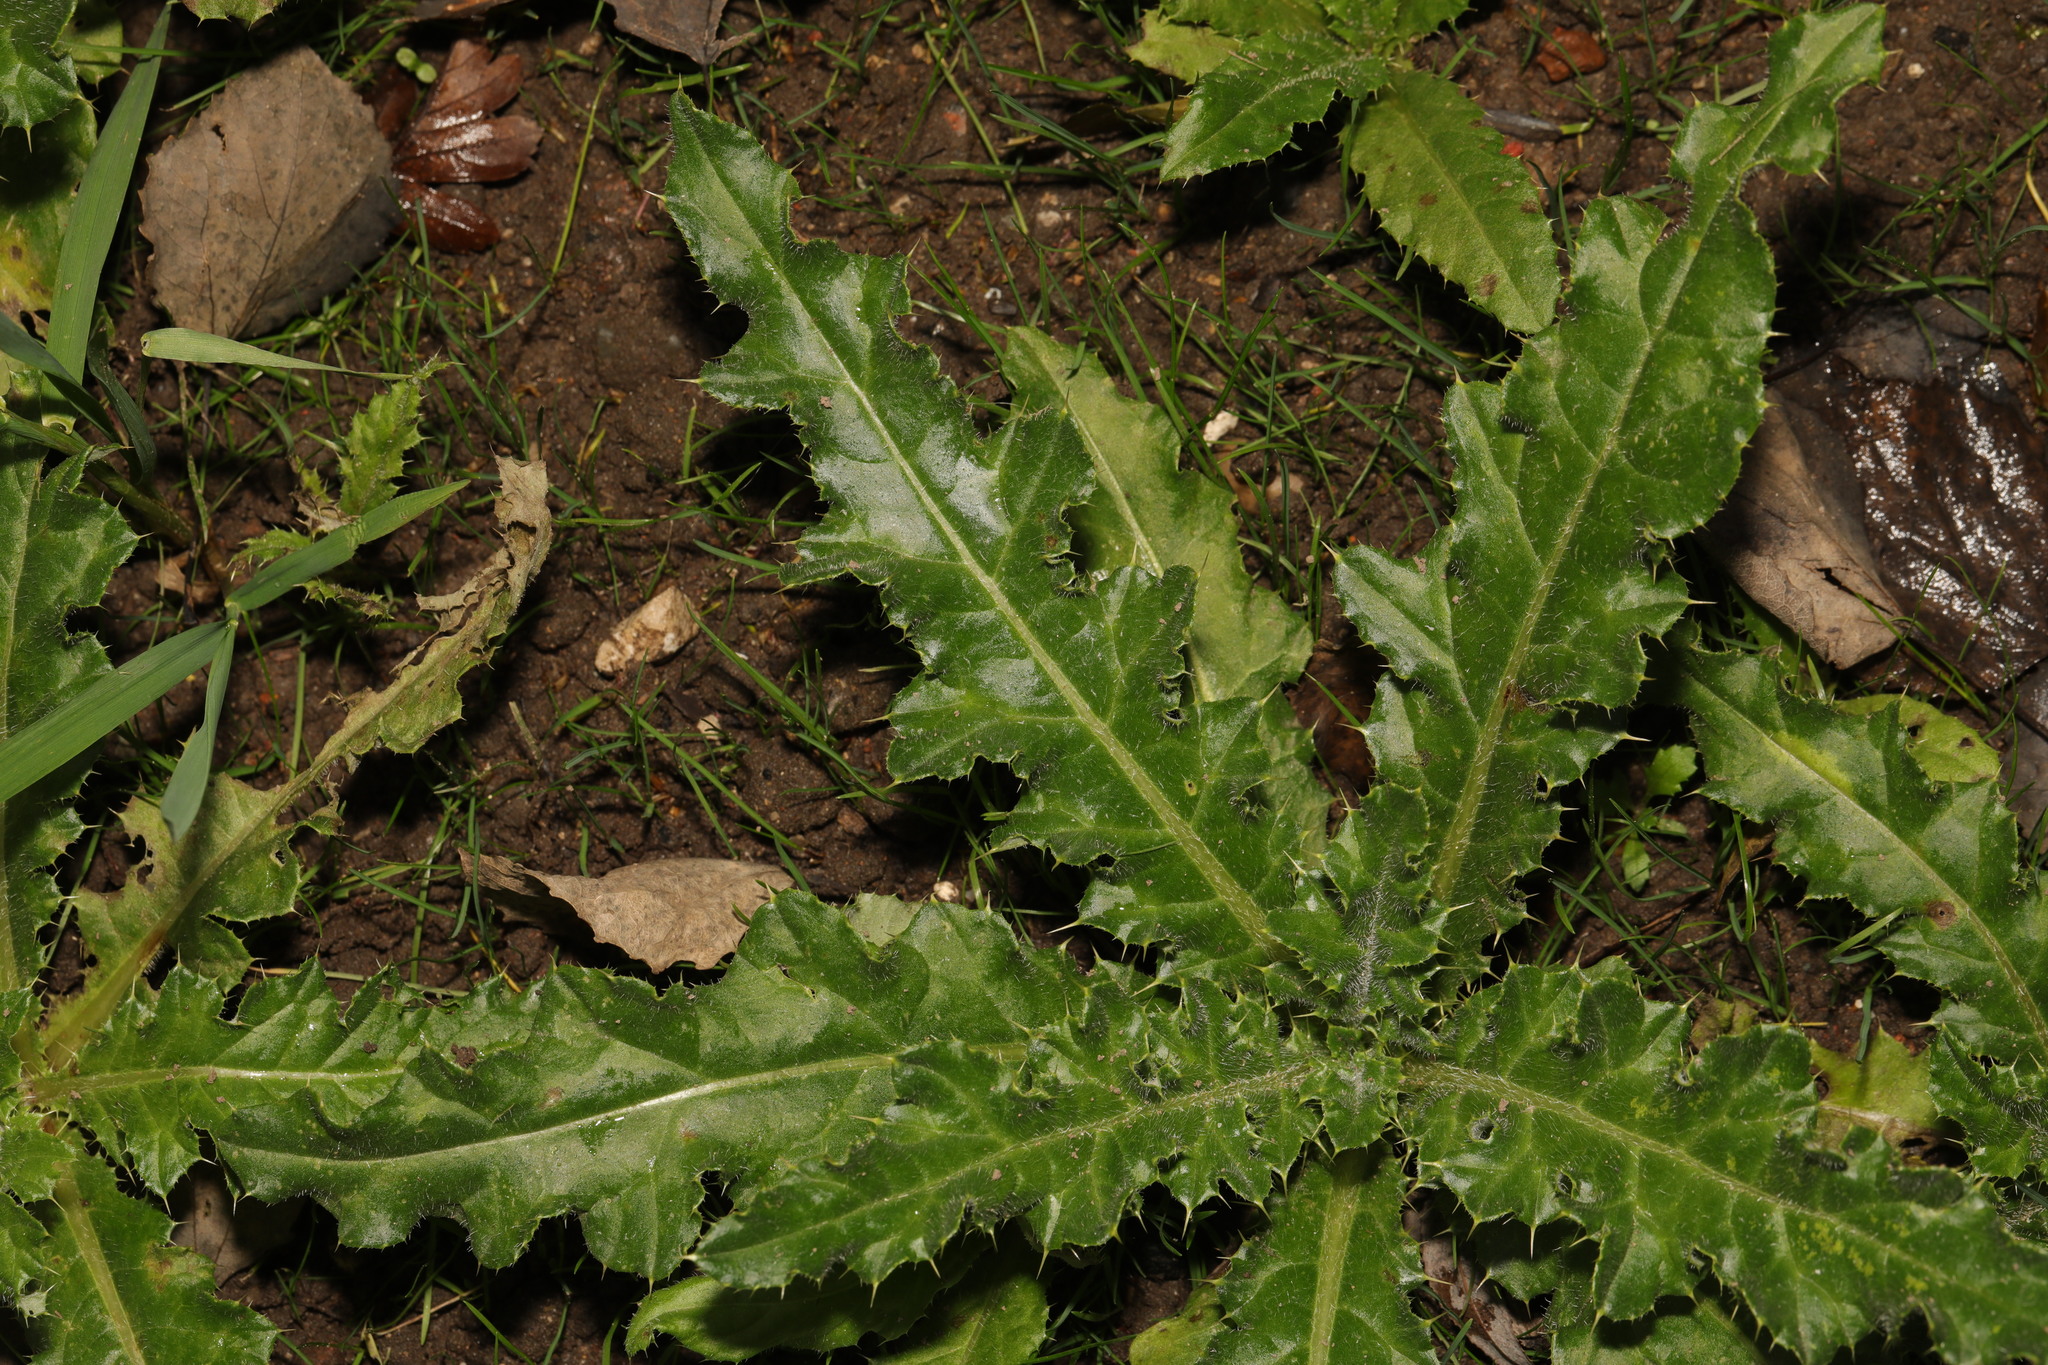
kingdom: Plantae
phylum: Tracheophyta
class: Magnoliopsida
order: Asterales
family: Asteraceae
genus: Cirsium
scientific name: Cirsium arvense
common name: Creeping thistle
